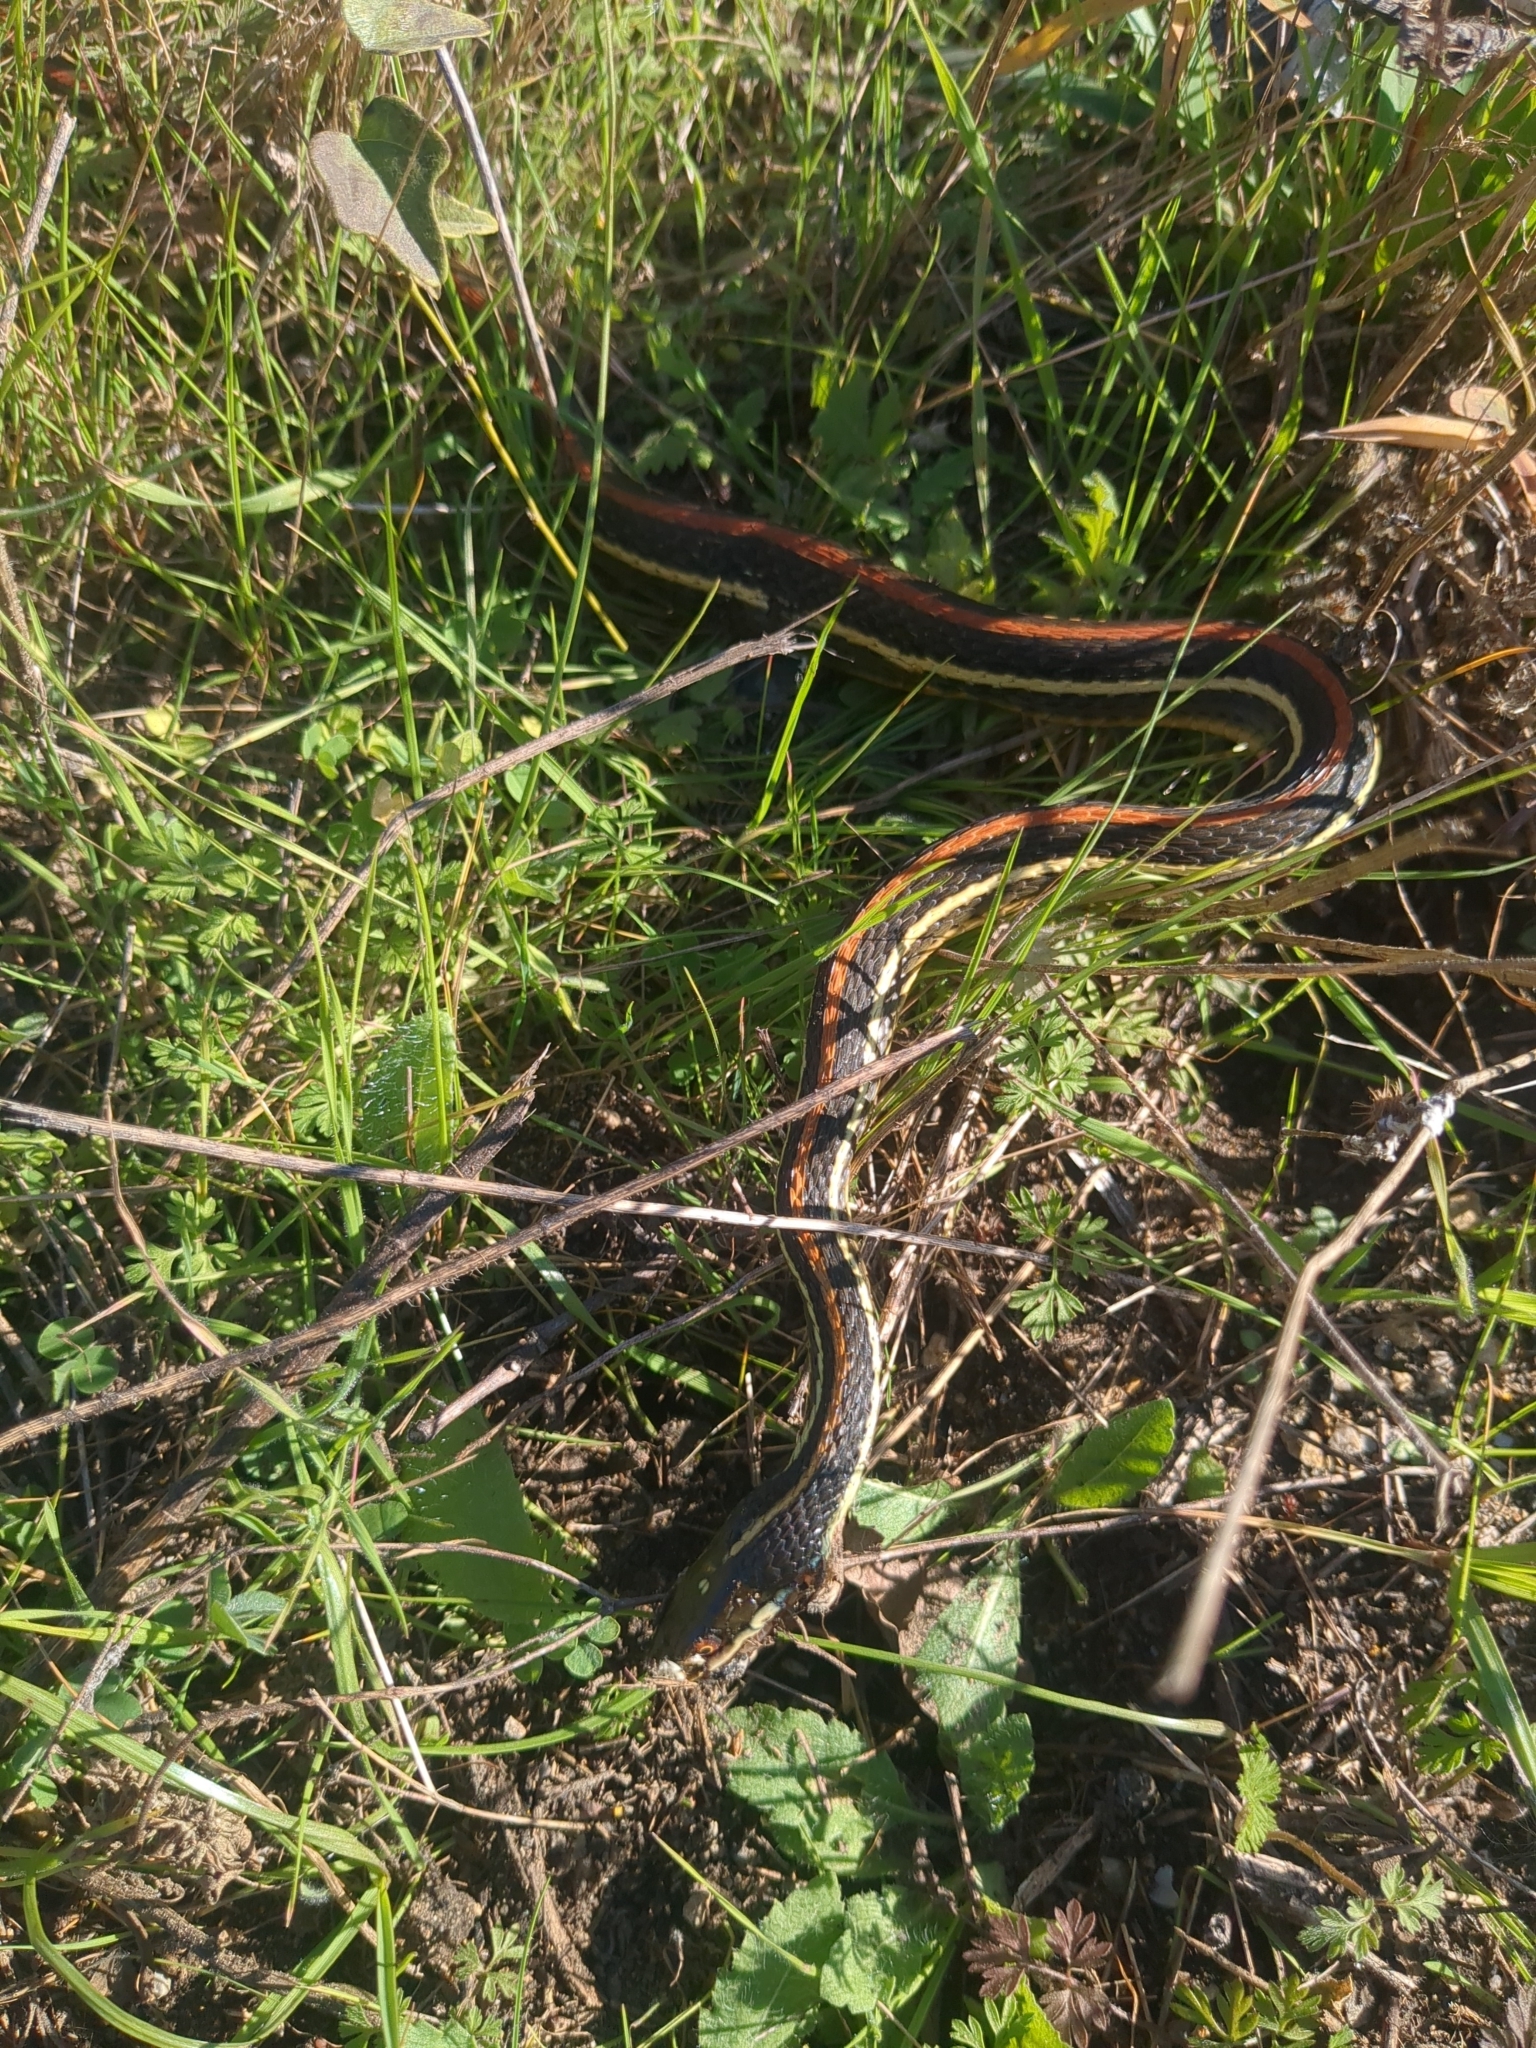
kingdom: Animalia
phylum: Chordata
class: Squamata
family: Colubridae
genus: Thamnophis
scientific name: Thamnophis proximus
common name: Western ribbon snake
